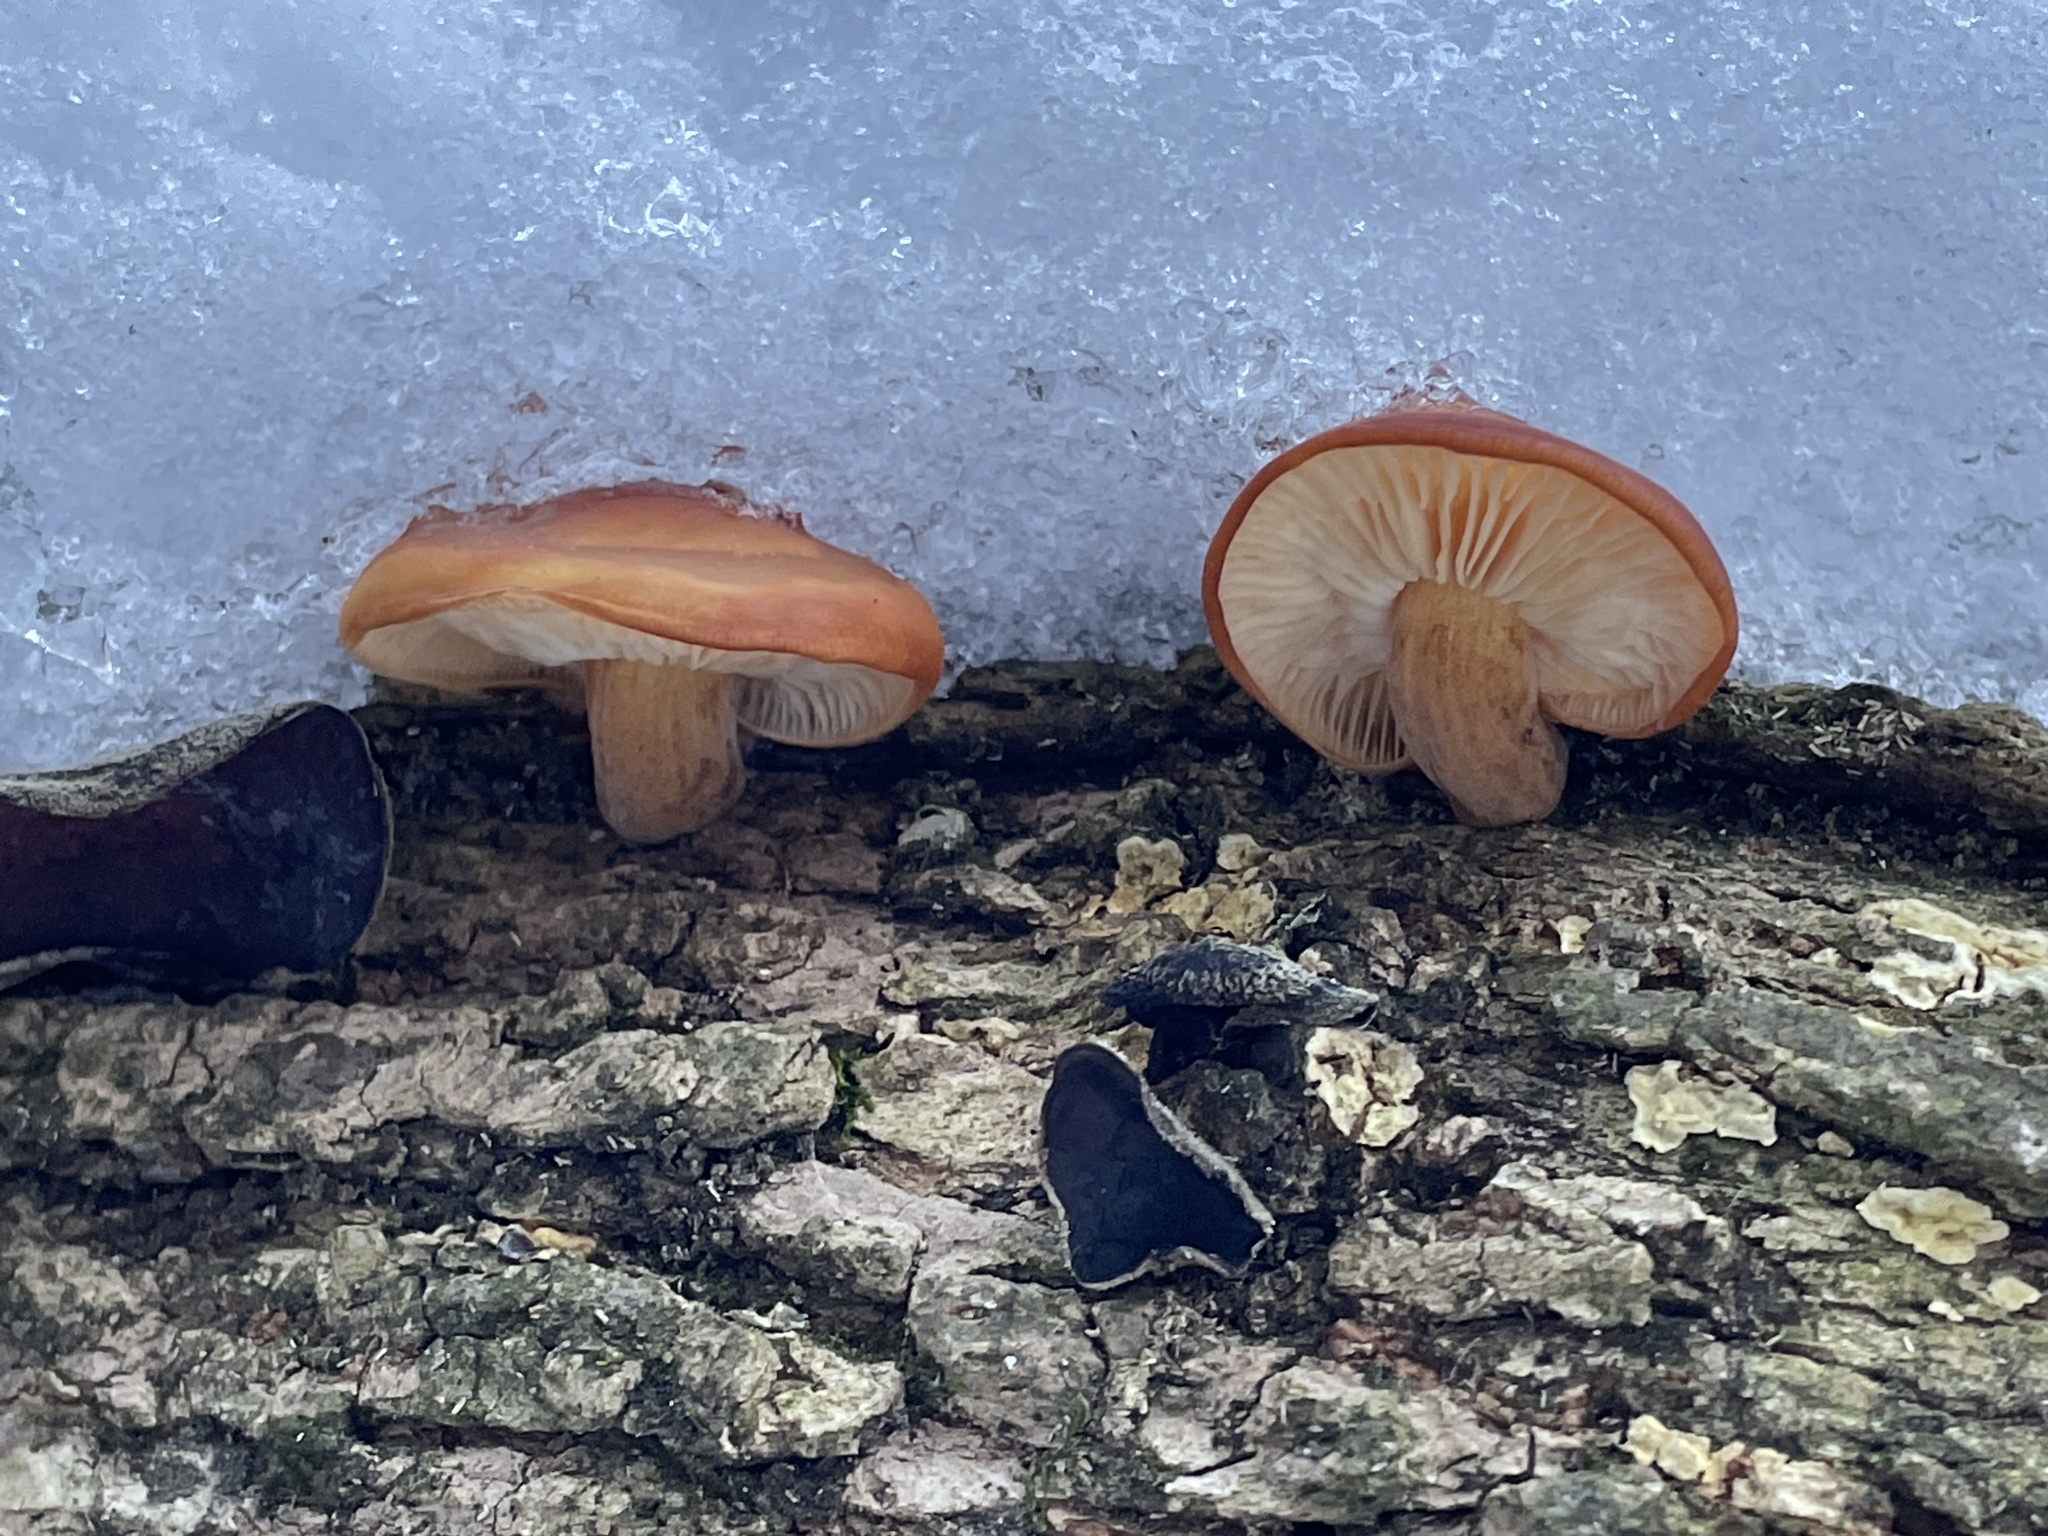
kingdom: Fungi
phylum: Basidiomycota
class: Agaricomycetes
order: Agaricales
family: Physalacriaceae
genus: Flammulina
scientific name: Flammulina velutipes
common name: Velvet shank
